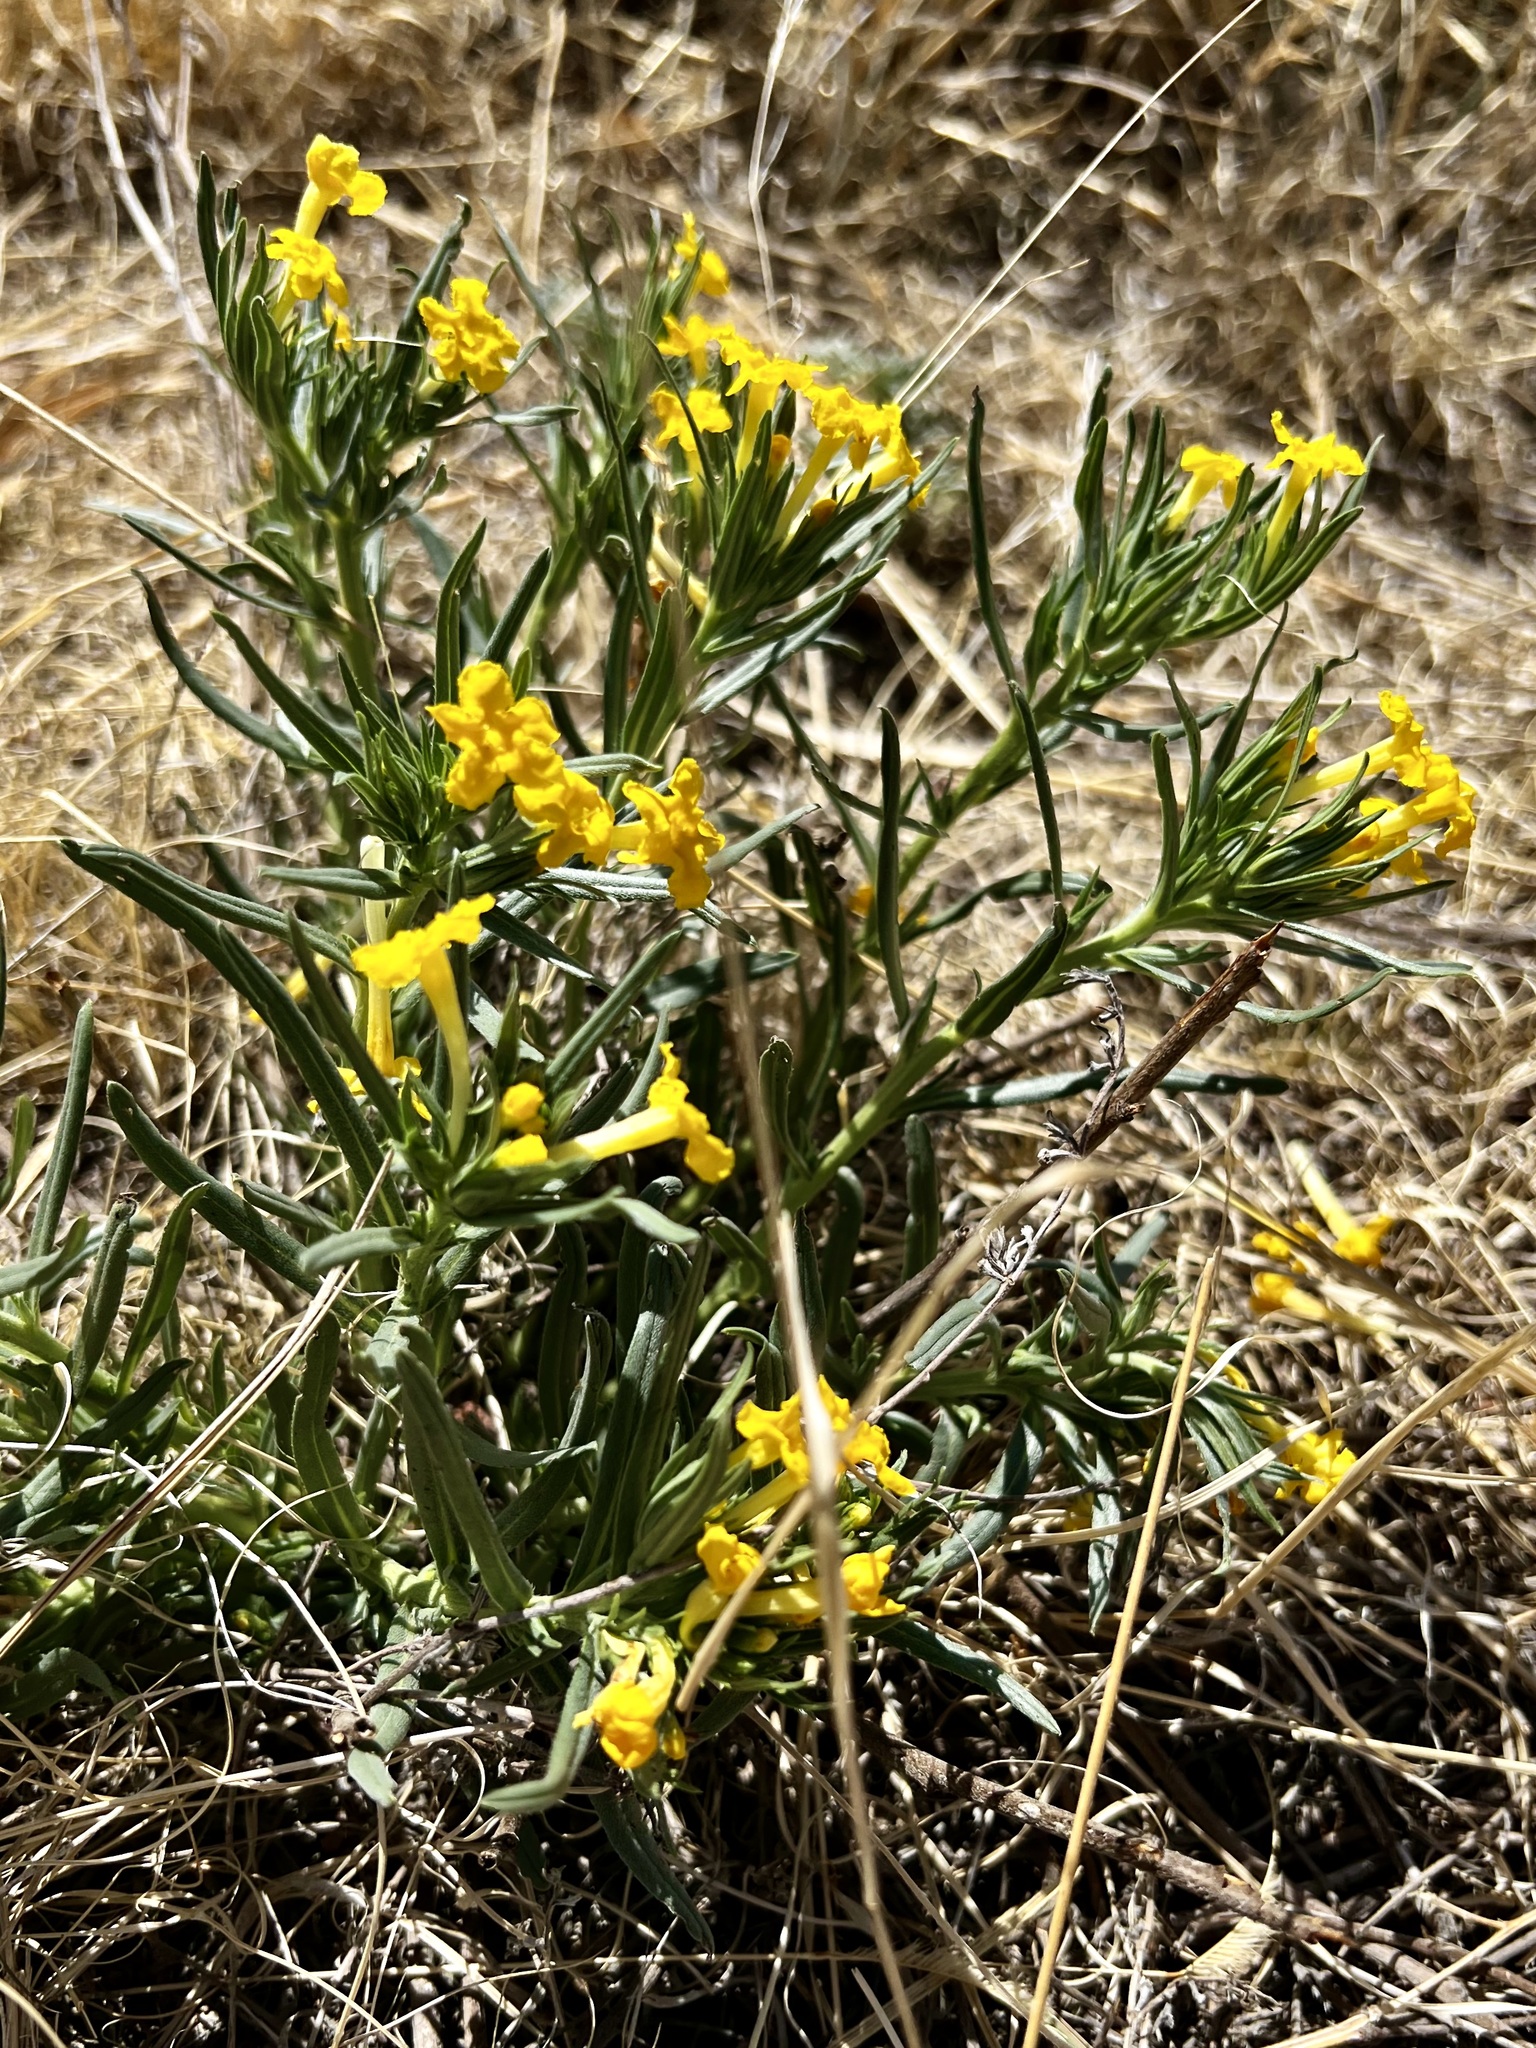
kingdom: Plantae
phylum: Tracheophyta
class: Magnoliopsida
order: Boraginales
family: Boraginaceae
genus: Lithospermum
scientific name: Lithospermum incisum
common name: Fringed gromwell
